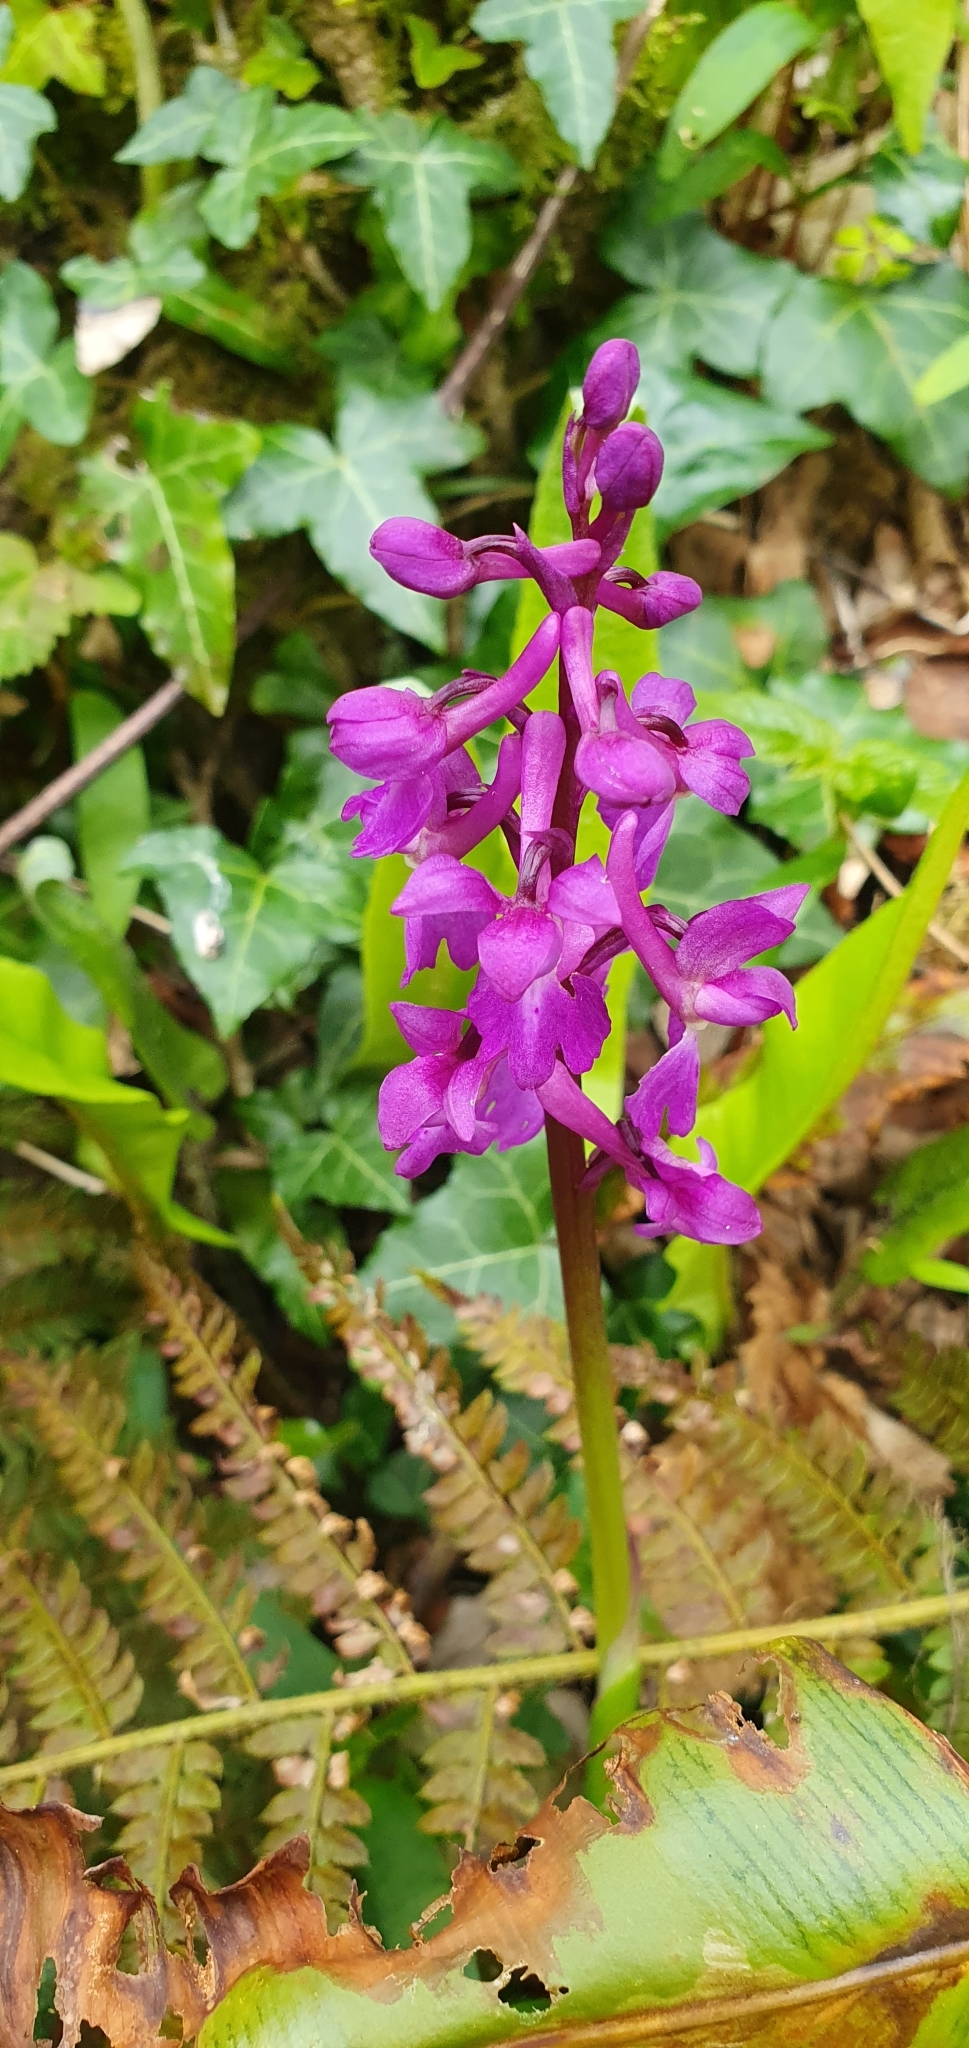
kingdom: Plantae
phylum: Tracheophyta
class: Liliopsida
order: Asparagales
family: Orchidaceae
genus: Orchis
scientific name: Orchis mascula
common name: Early-purple orchid
